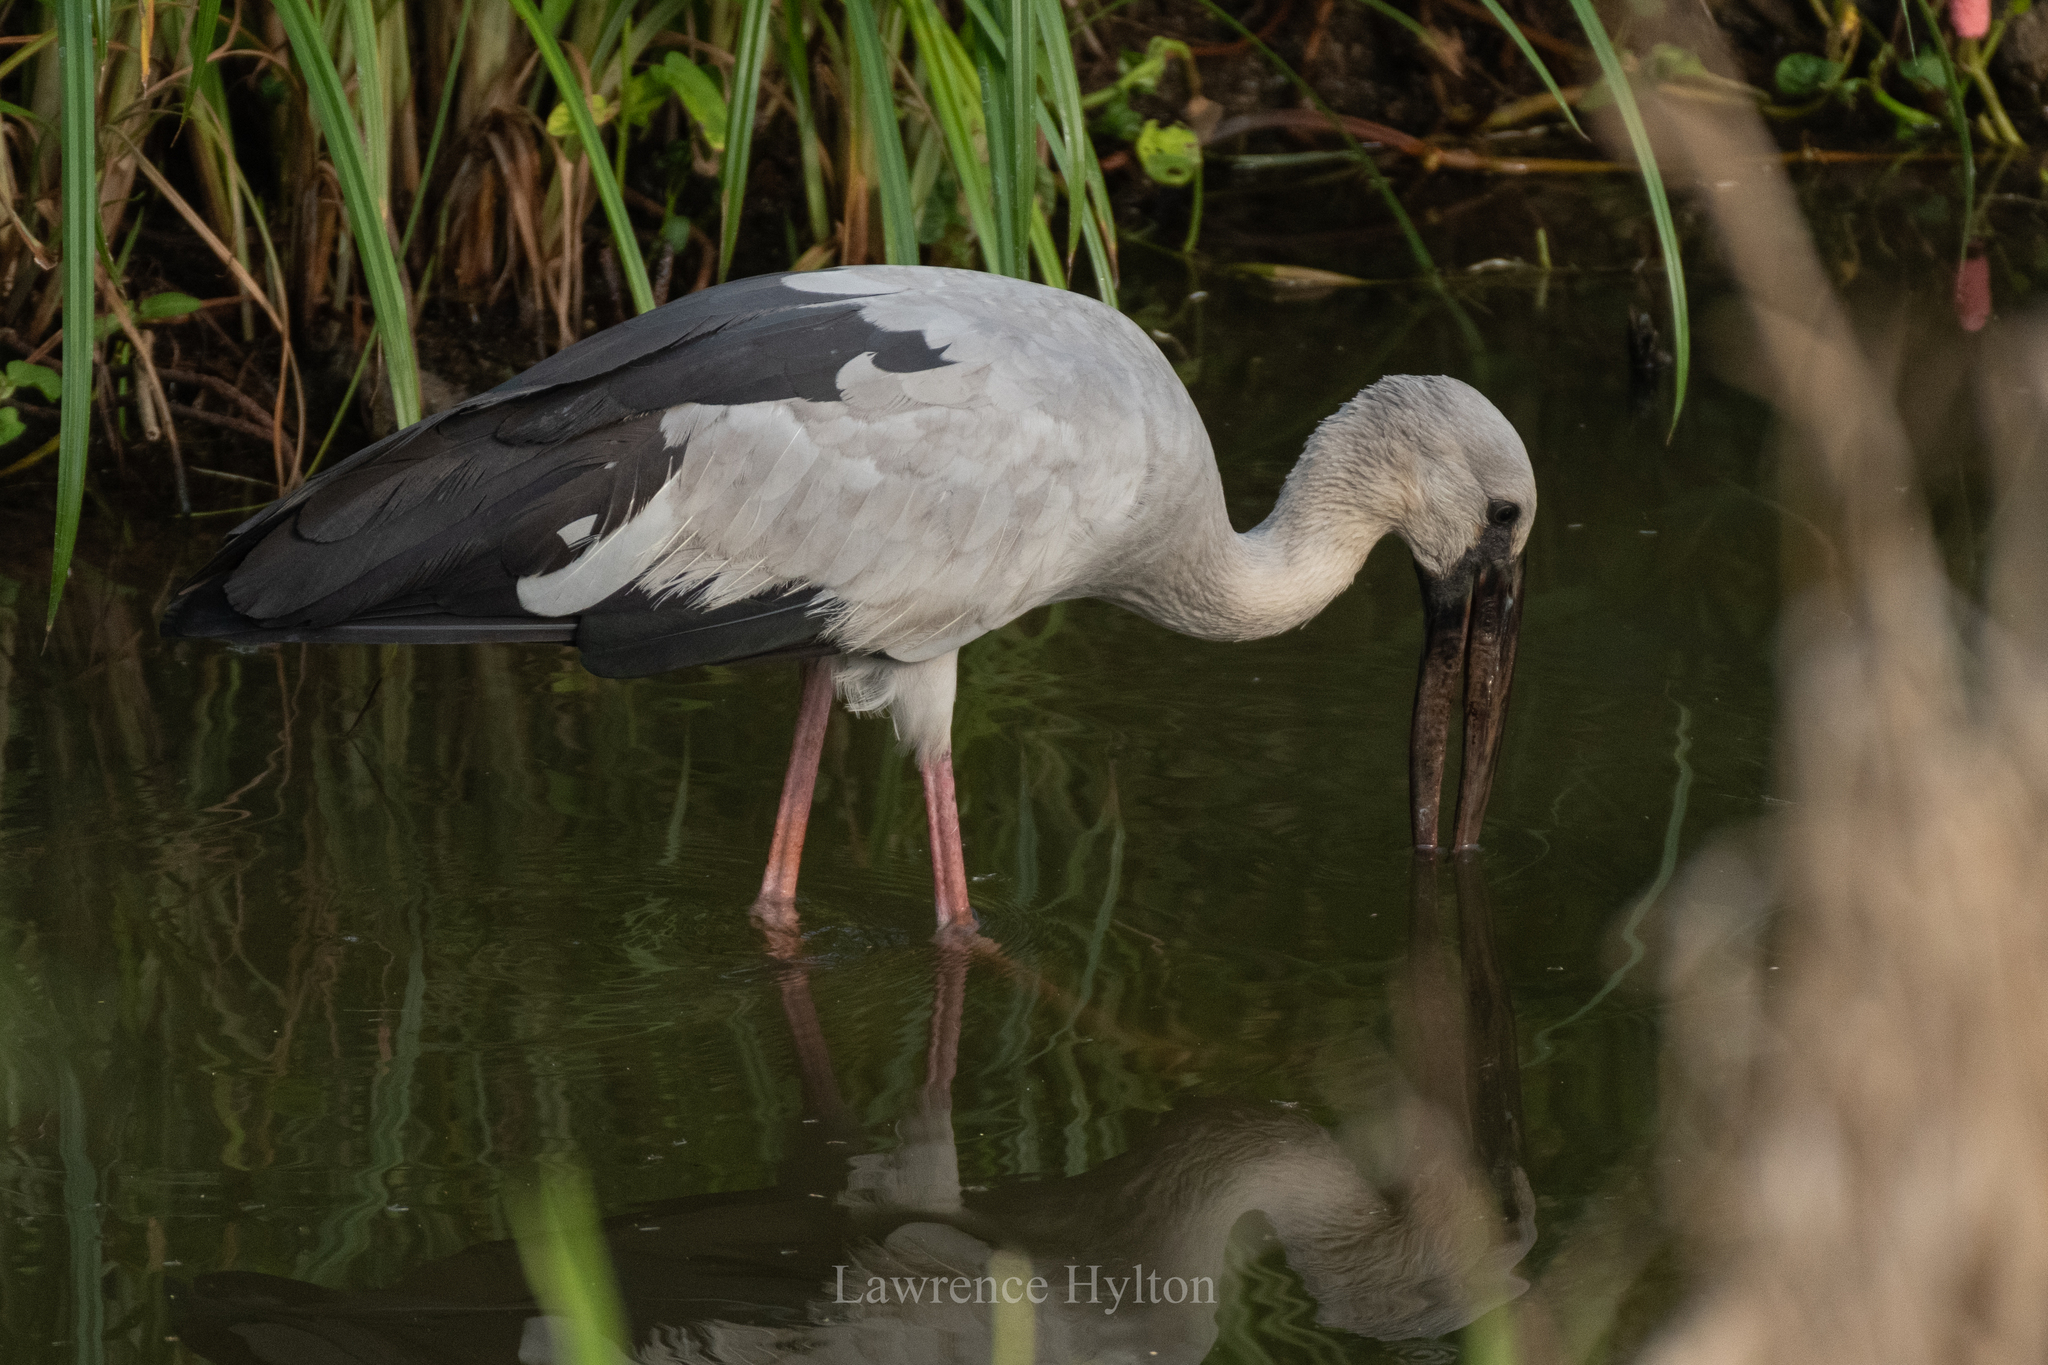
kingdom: Animalia
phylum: Chordata
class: Aves
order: Ciconiiformes
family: Ciconiidae
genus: Anastomus
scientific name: Anastomus oscitans
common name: Asian openbill
